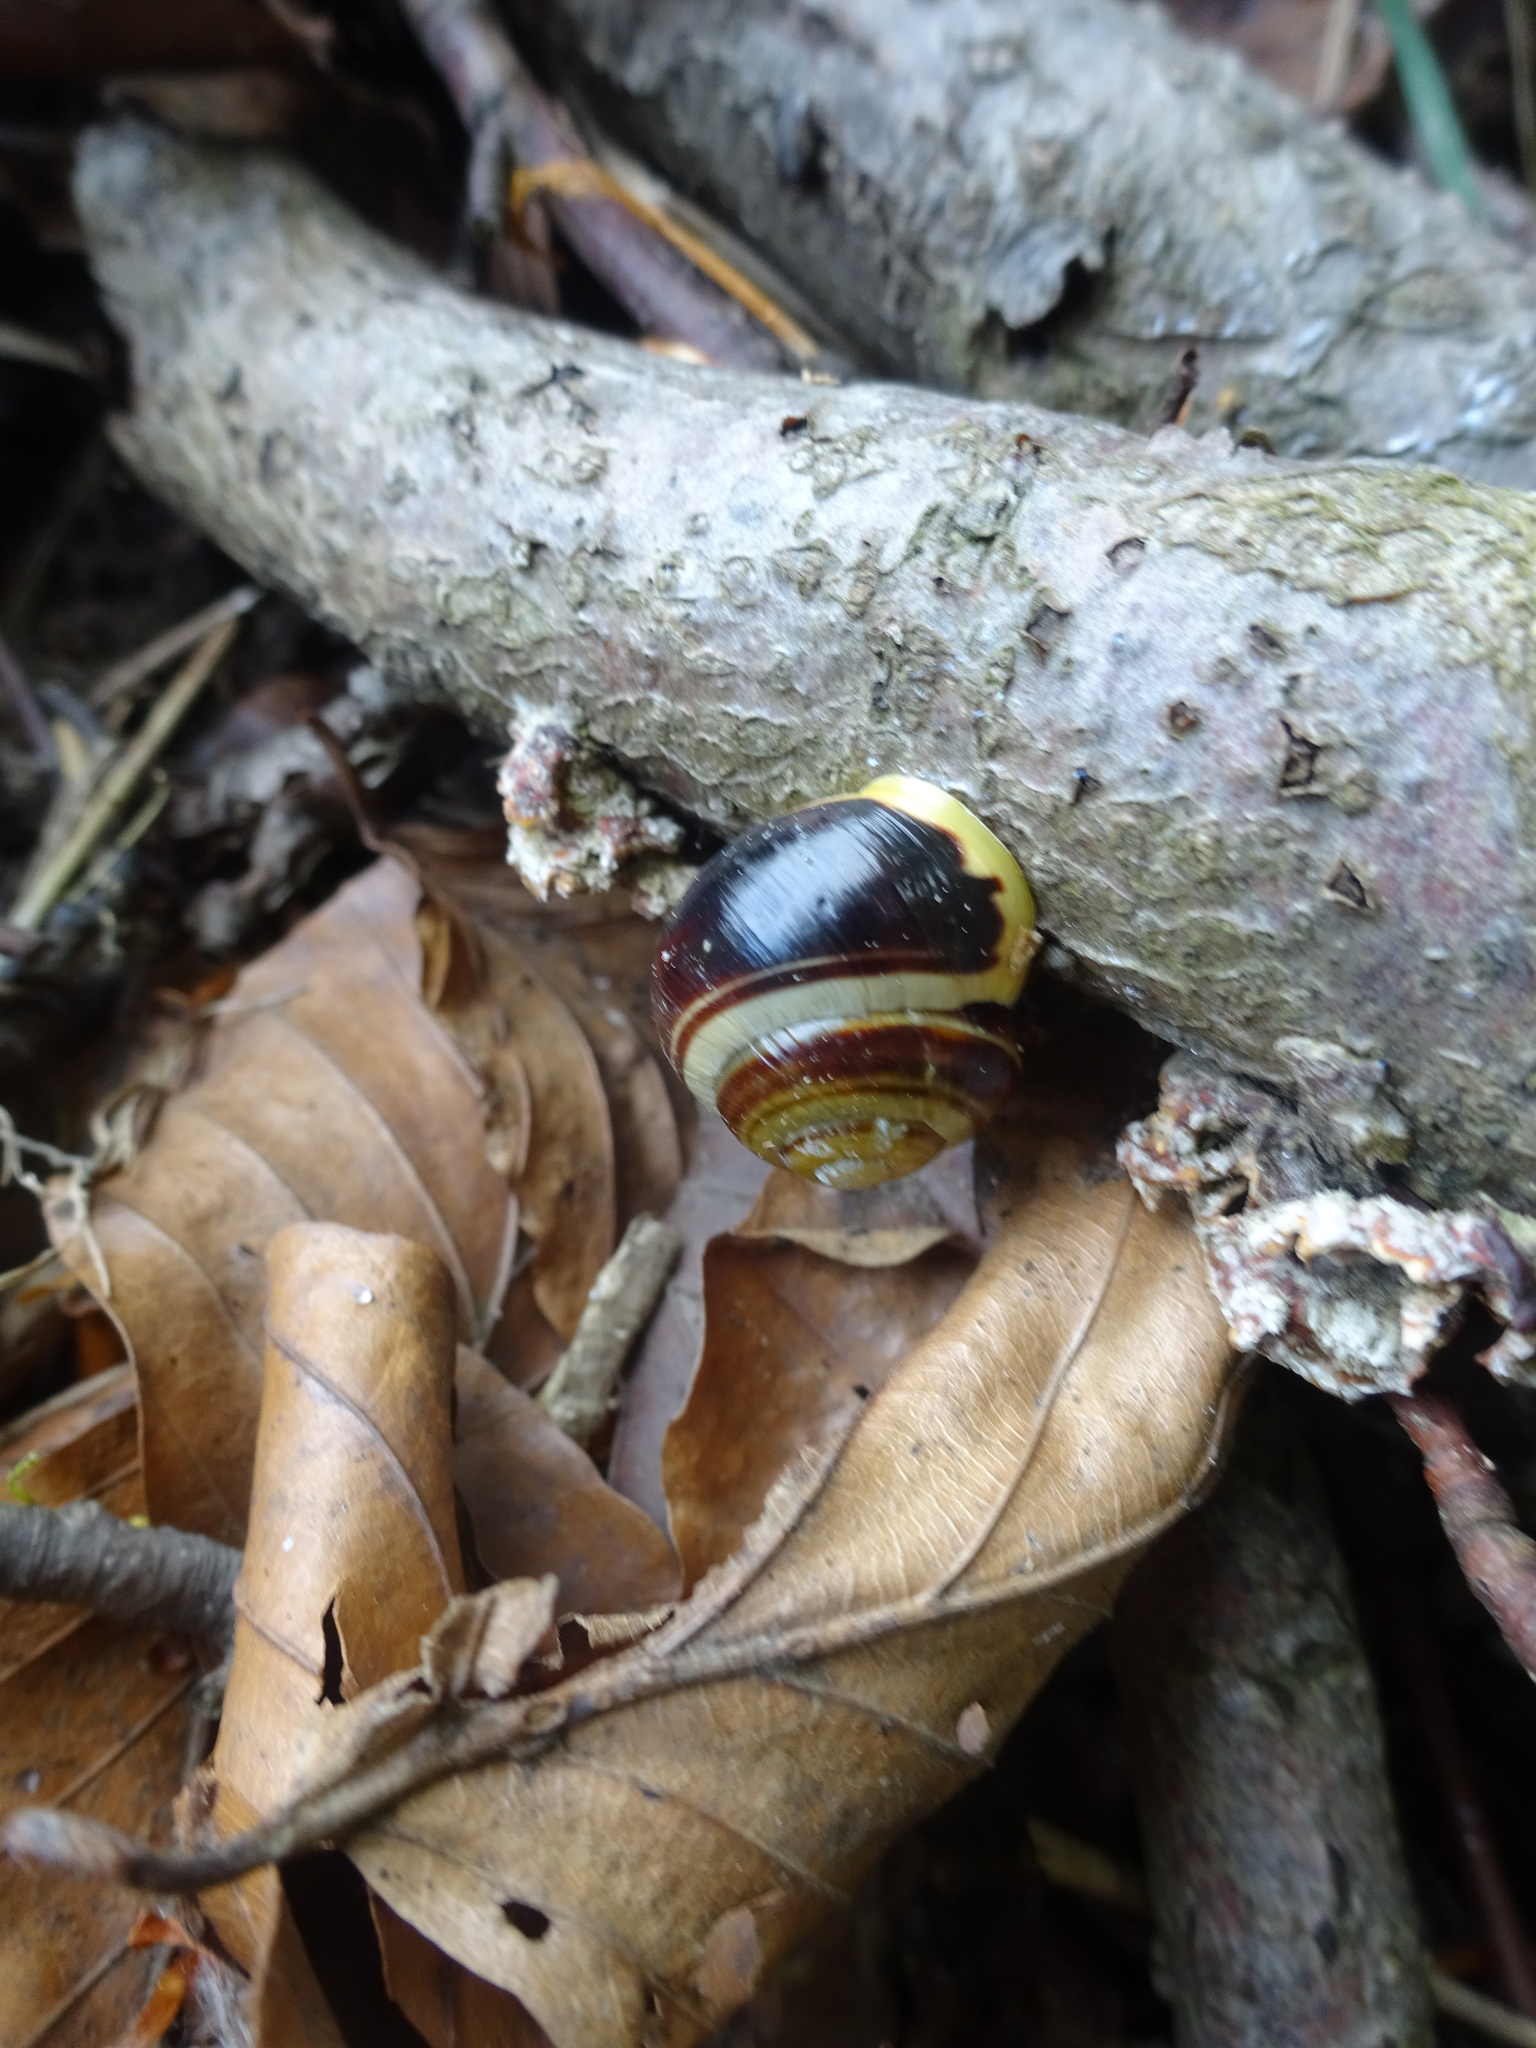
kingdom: Animalia
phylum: Mollusca
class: Gastropoda
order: Stylommatophora
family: Helicidae
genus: Cepaea
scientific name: Cepaea hortensis
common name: White-lip gardensnail
